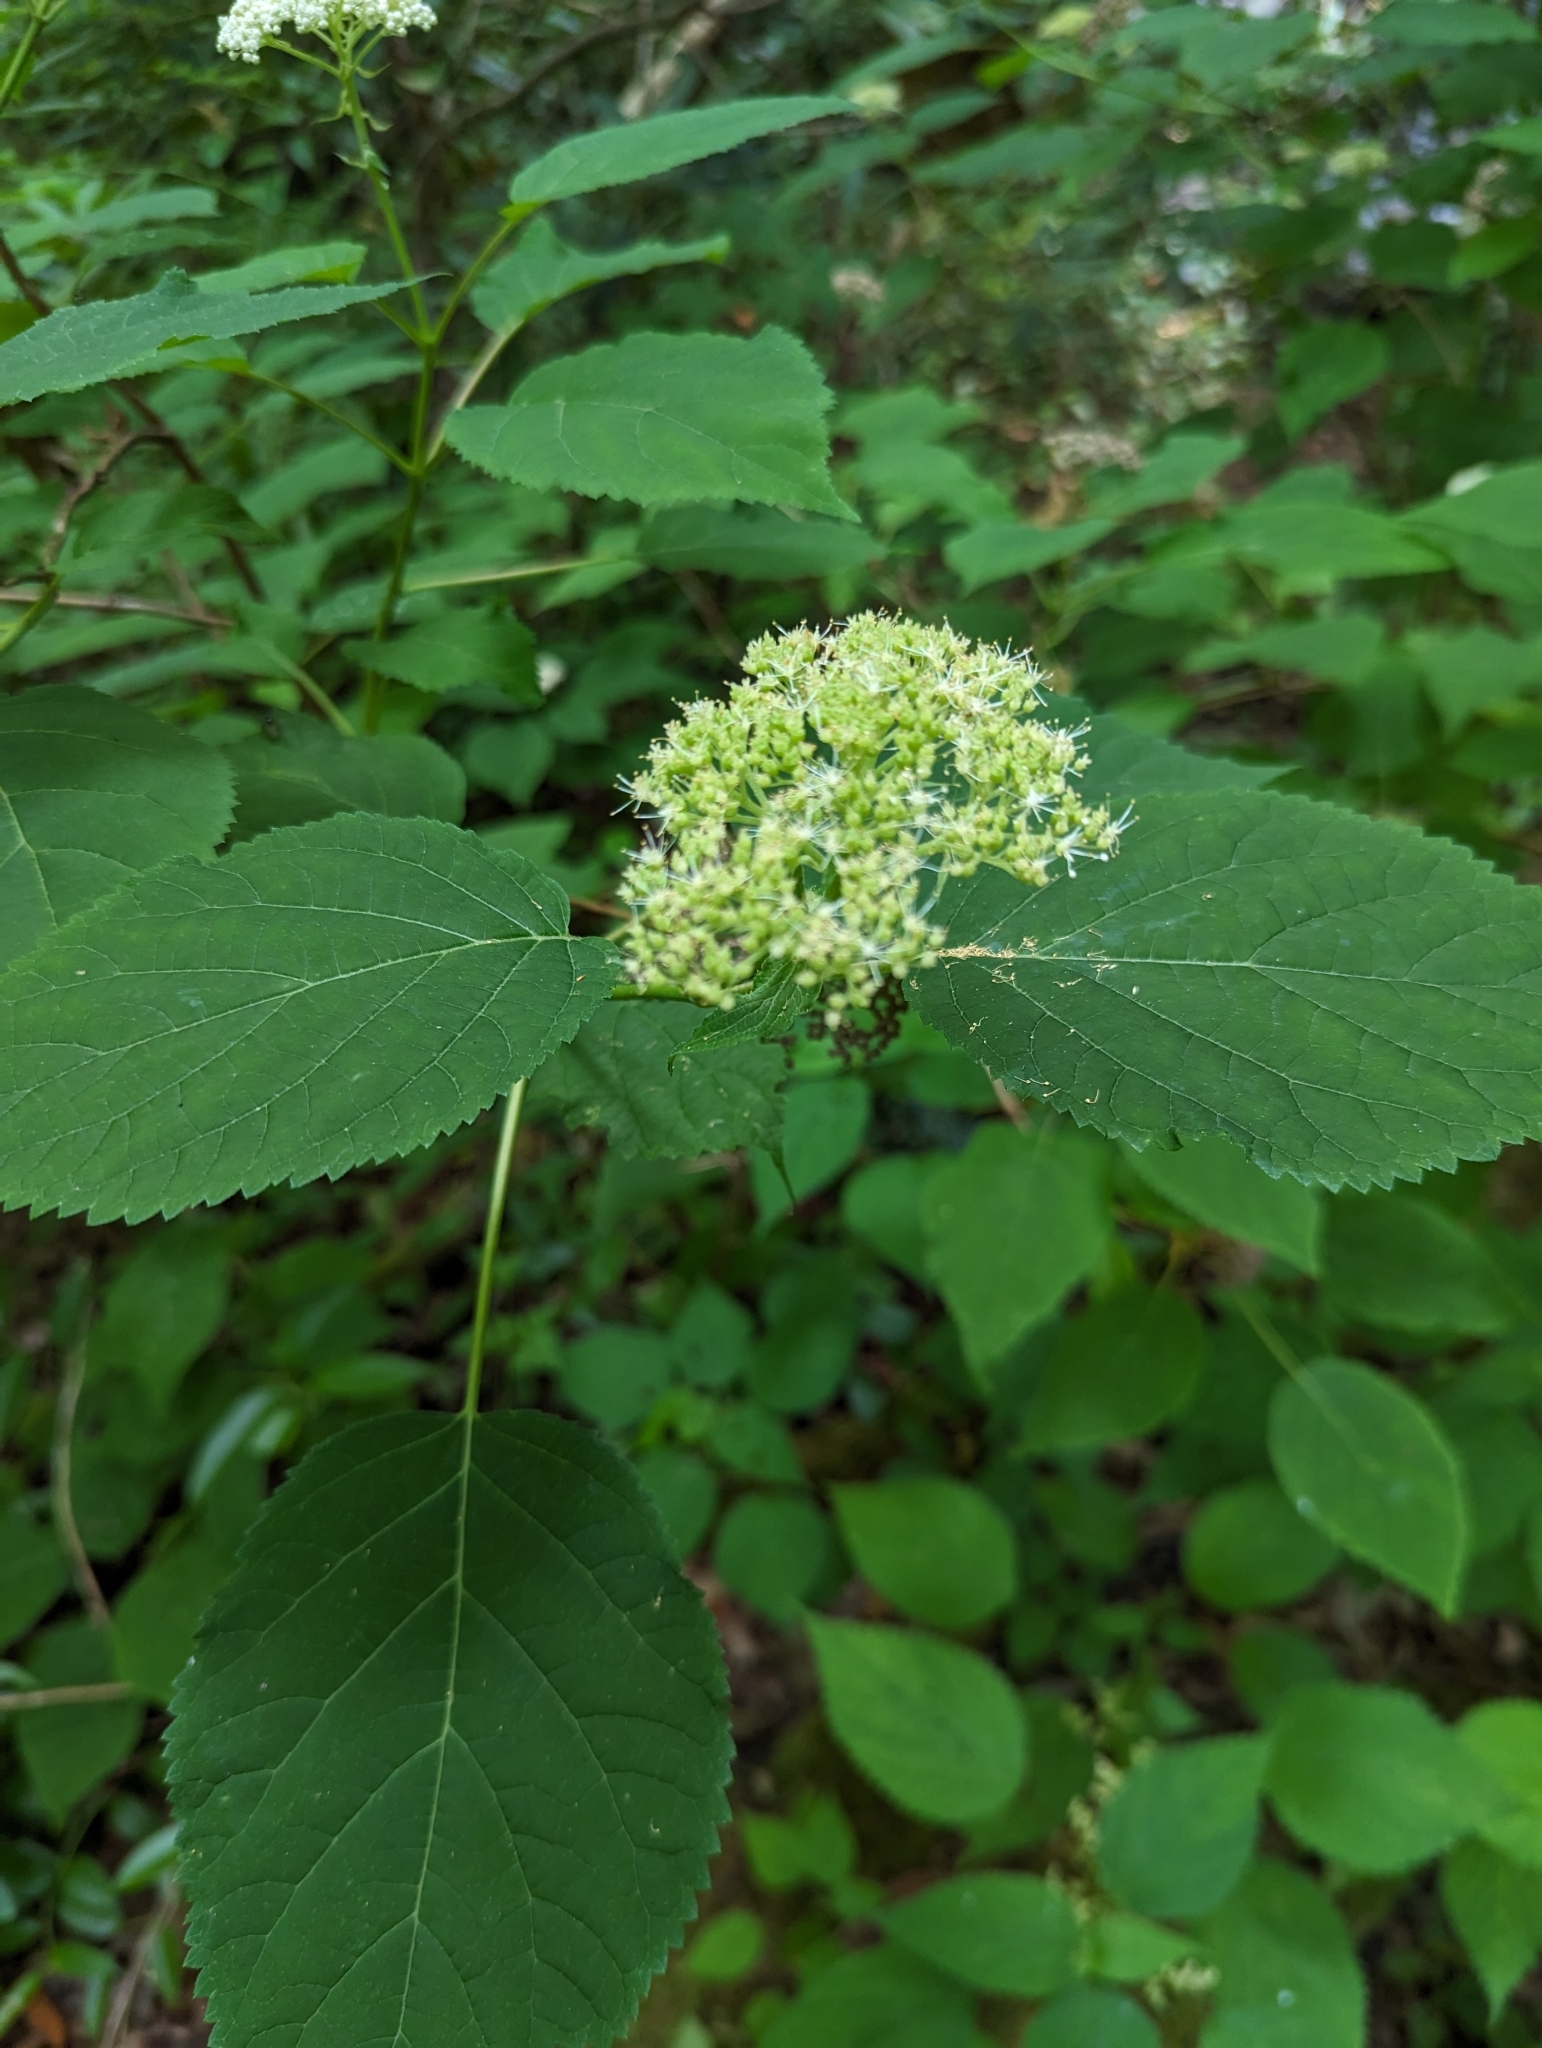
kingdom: Plantae
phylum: Tracheophyta
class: Magnoliopsida
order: Cornales
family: Hydrangeaceae
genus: Hydrangea
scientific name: Hydrangea arborescens
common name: Sevenbark
